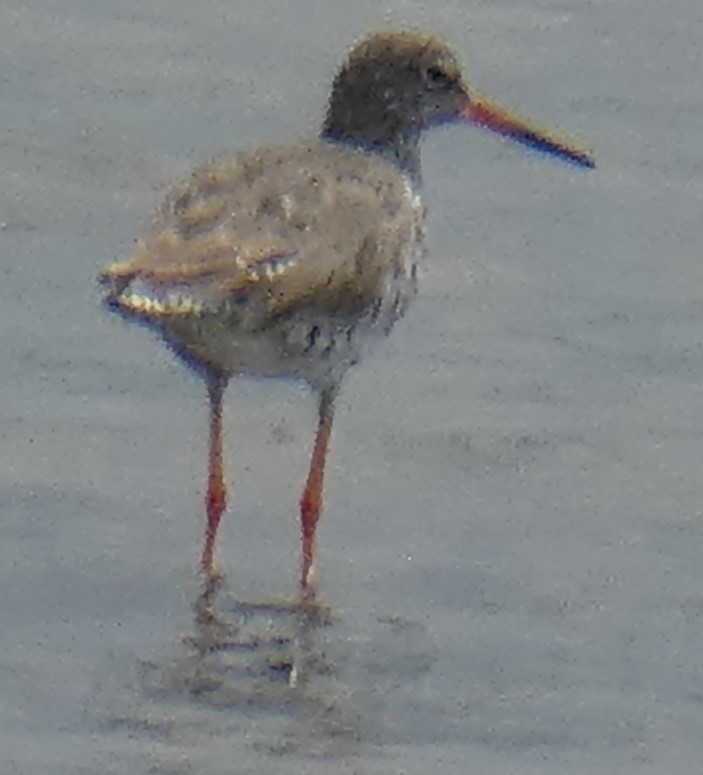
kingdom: Animalia
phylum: Chordata
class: Aves
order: Charadriiformes
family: Scolopacidae
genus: Tringa
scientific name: Tringa totanus
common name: Common redshank
